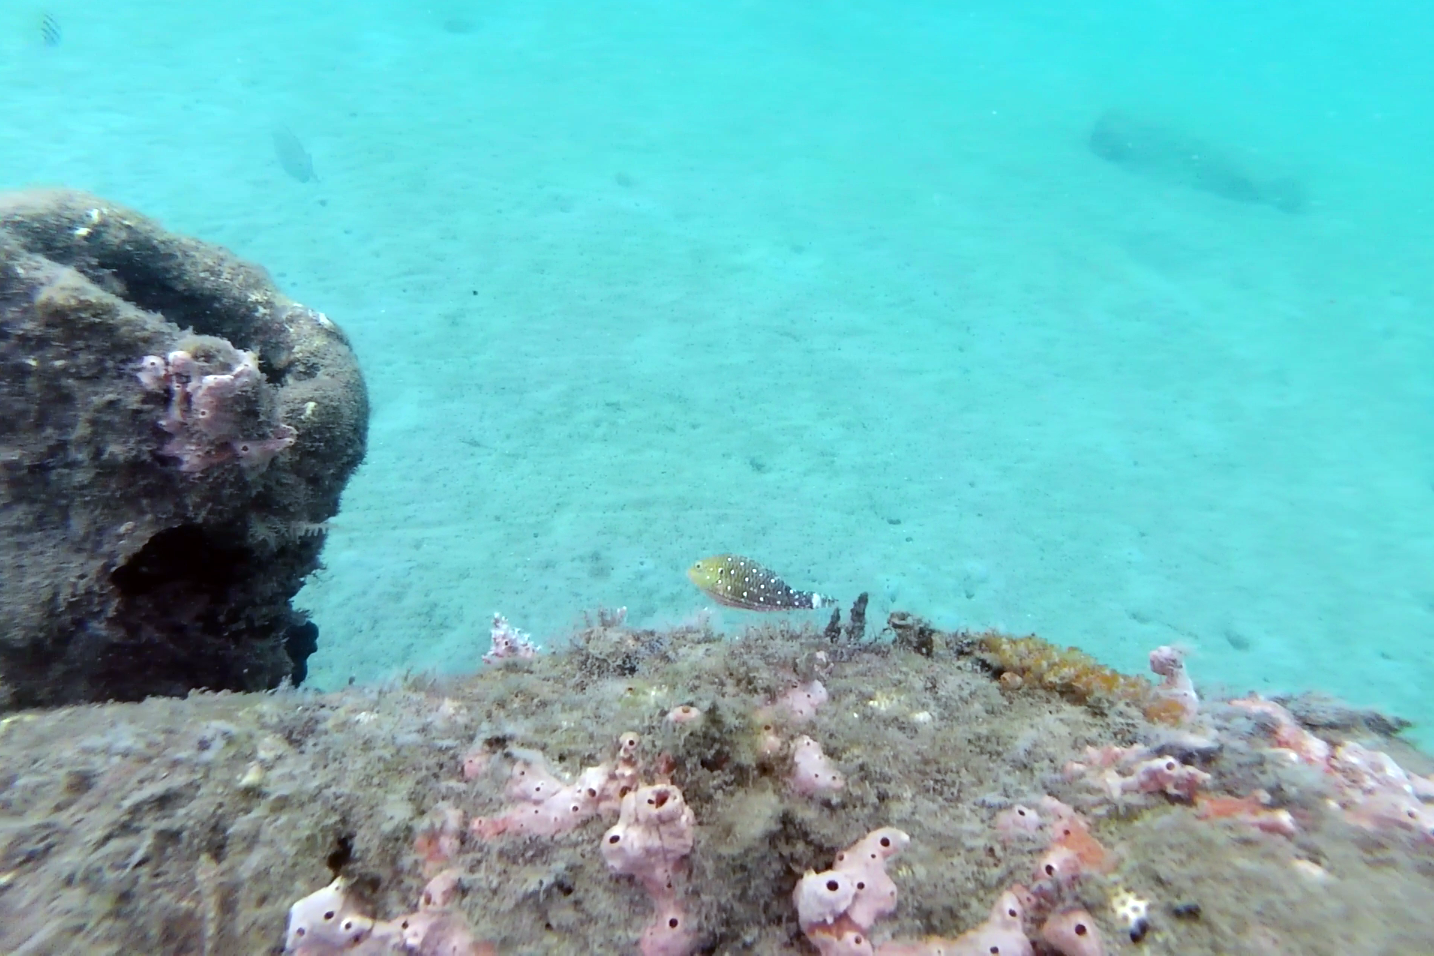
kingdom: Animalia
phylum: Chordata
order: Perciformes
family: Scaridae
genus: Sparisoma
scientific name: Sparisoma viride
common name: Stoplight parrotfish
